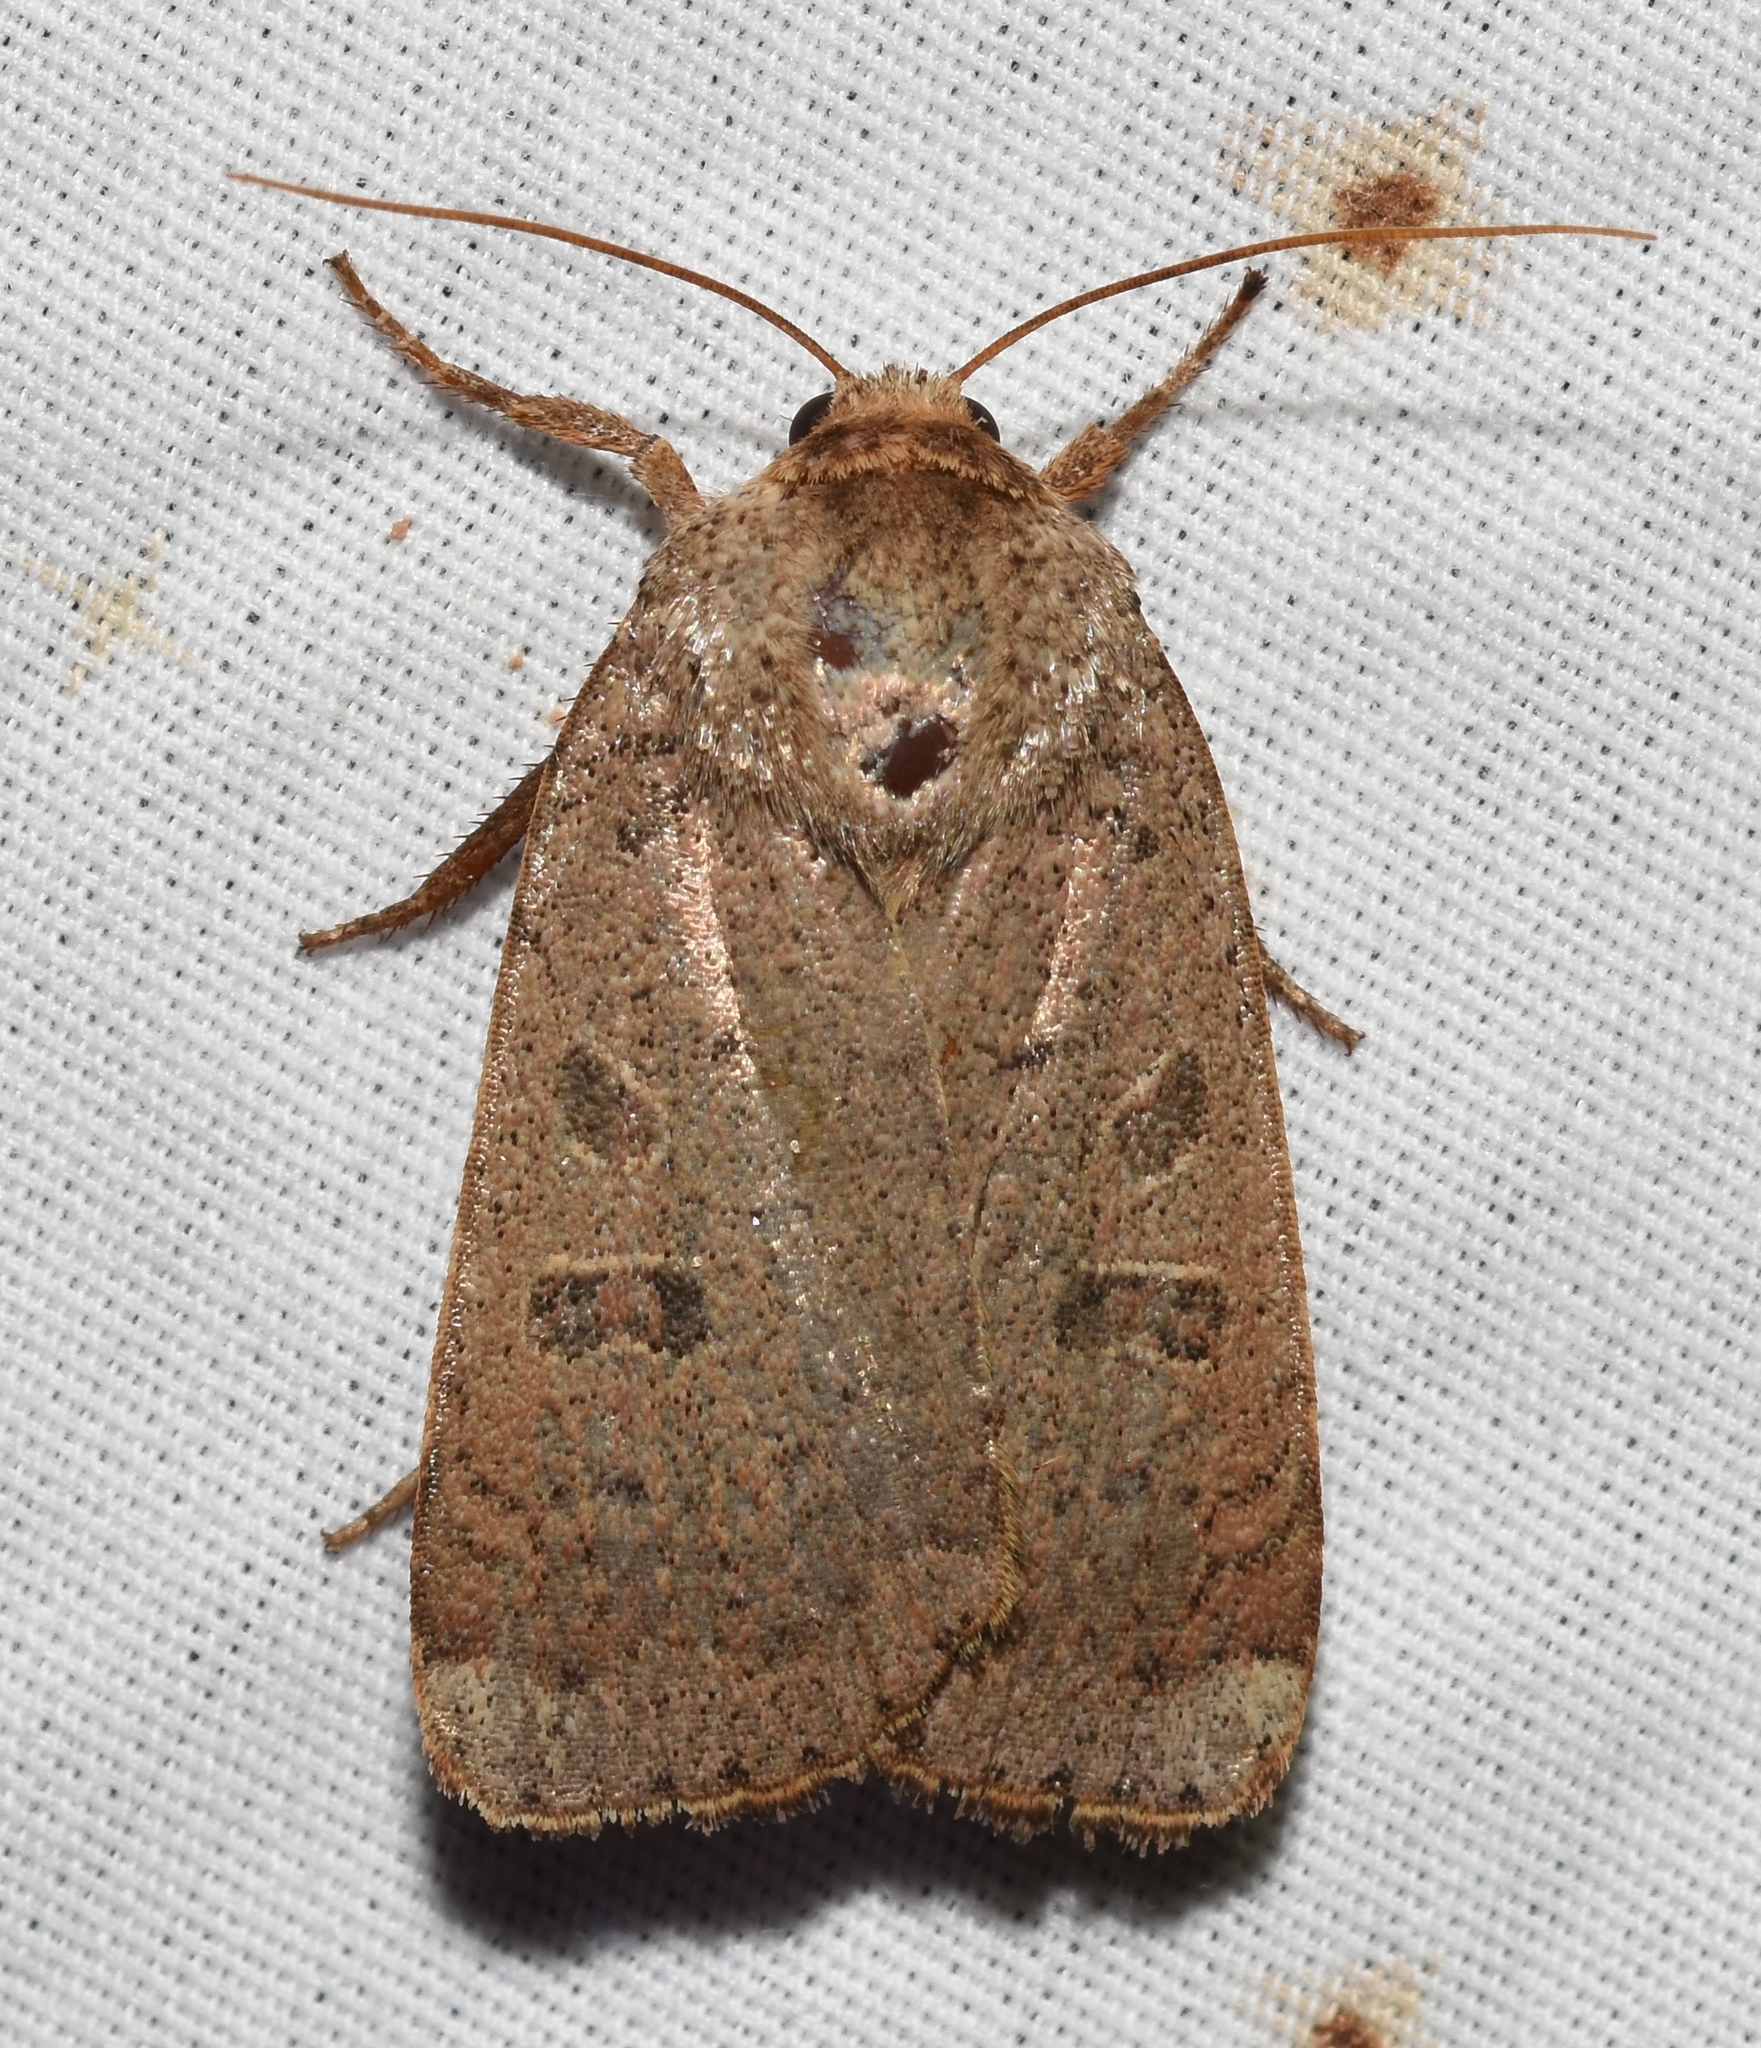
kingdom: Animalia
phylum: Arthropoda
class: Insecta
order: Lepidoptera
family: Noctuidae
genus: Abagrotis
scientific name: Abagrotis alternata
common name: Greater red dart
